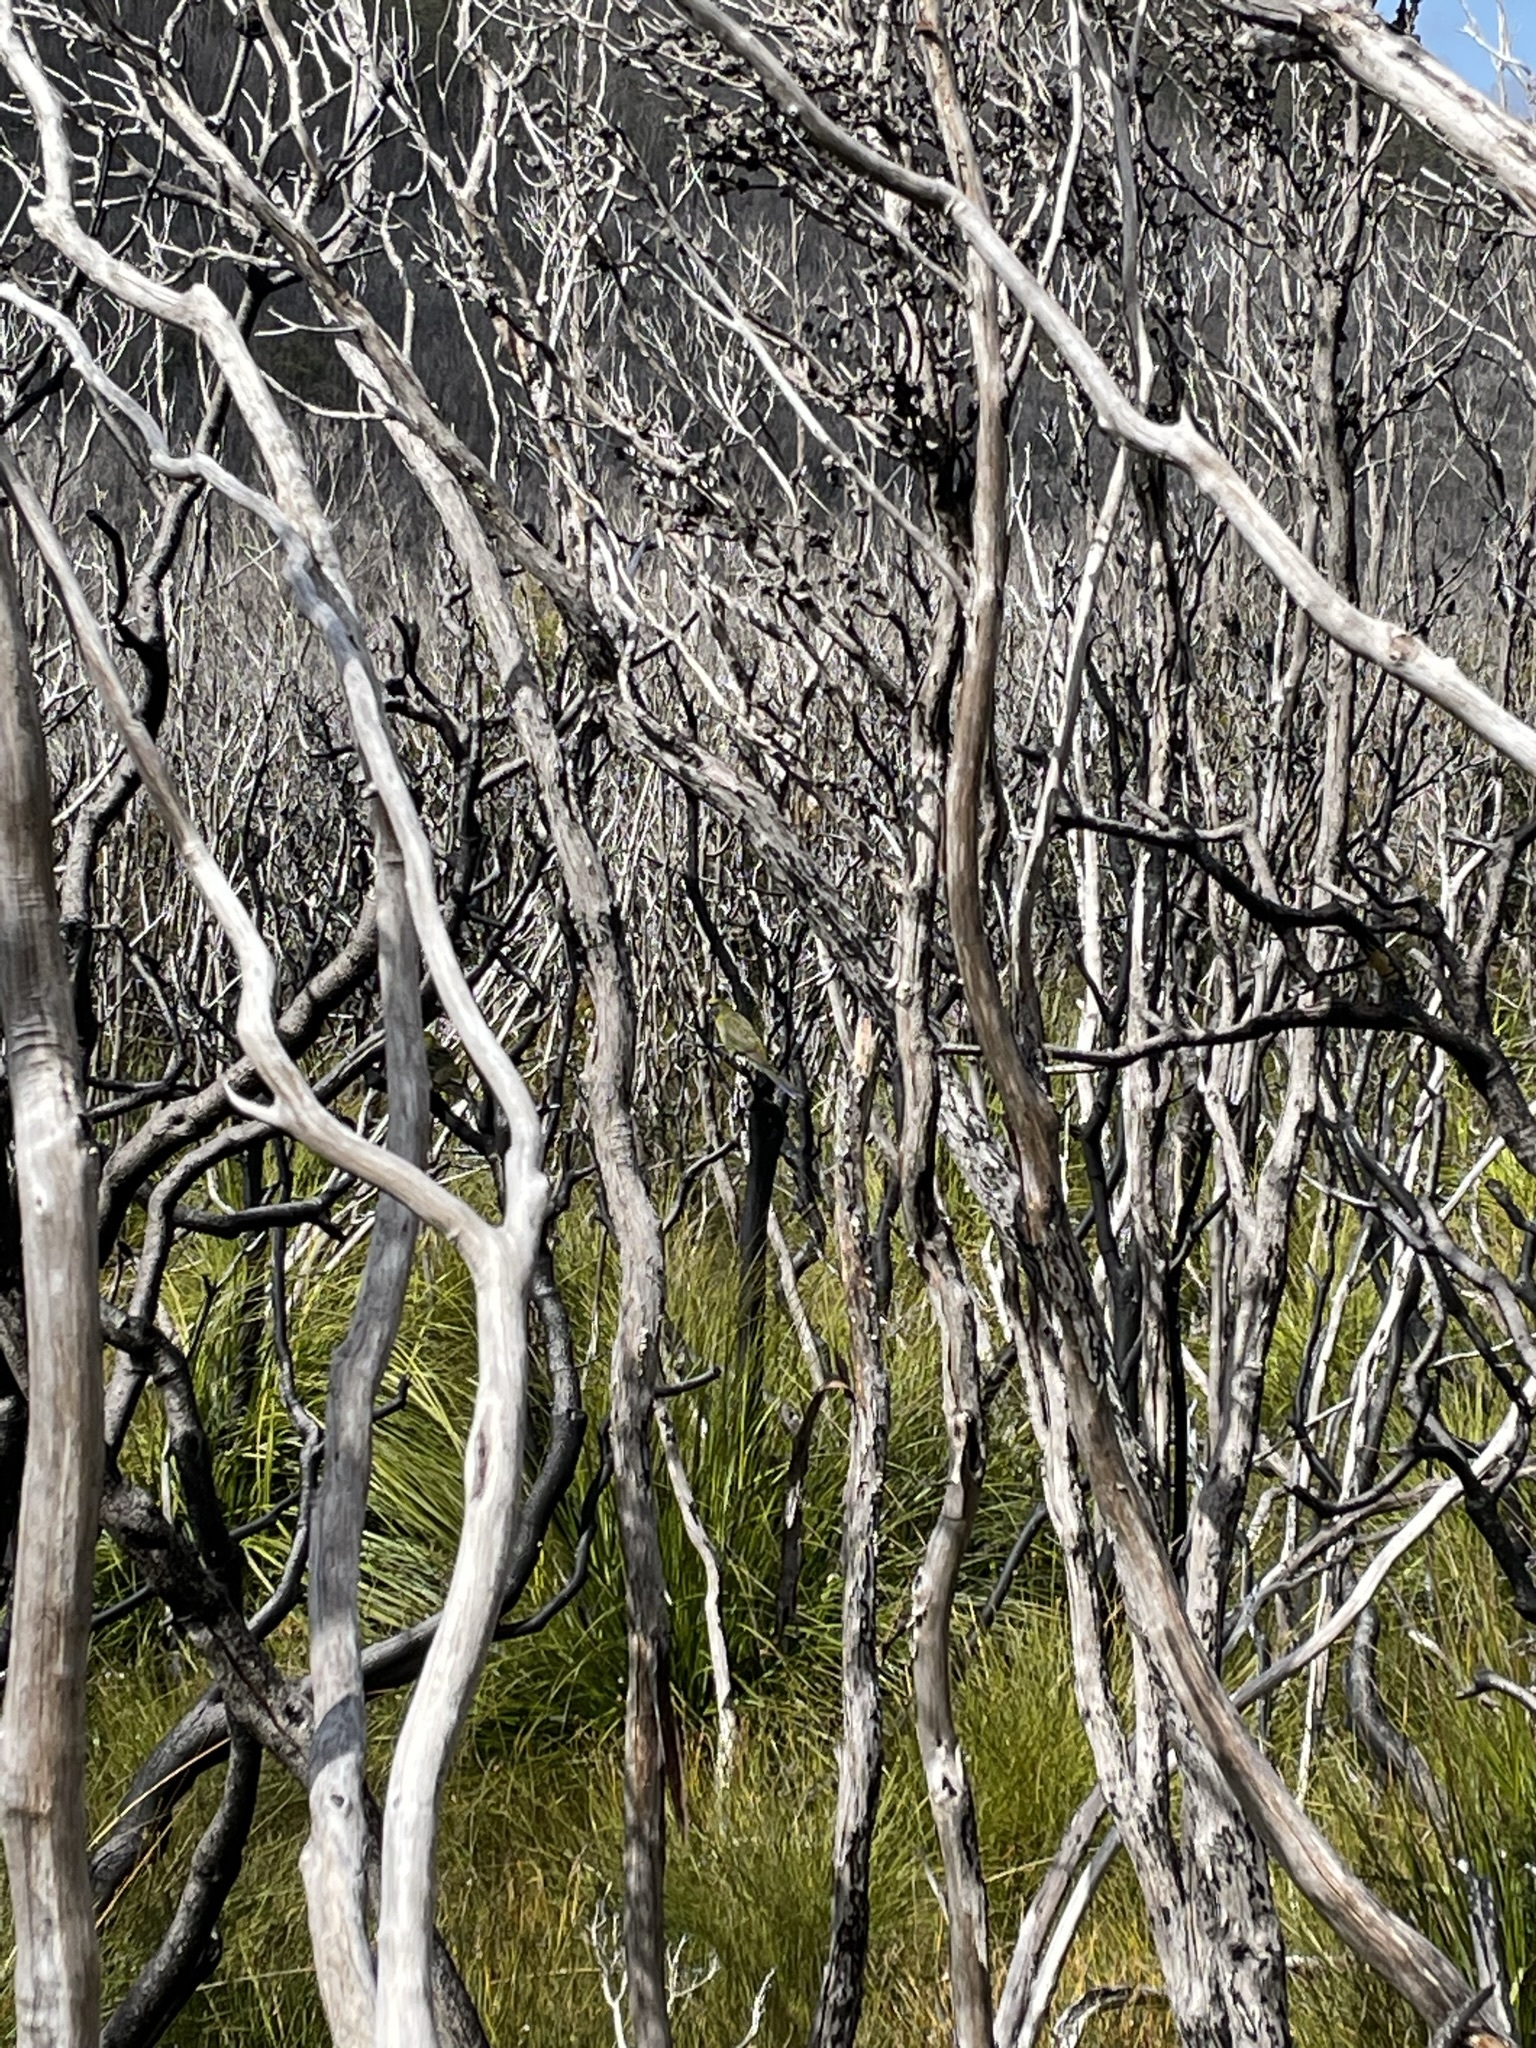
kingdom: Animalia
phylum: Chordata
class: Aves
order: Psittaciformes
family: Psittacidae
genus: Platycercus
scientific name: Platycercus caledonicus
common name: Green rosella
